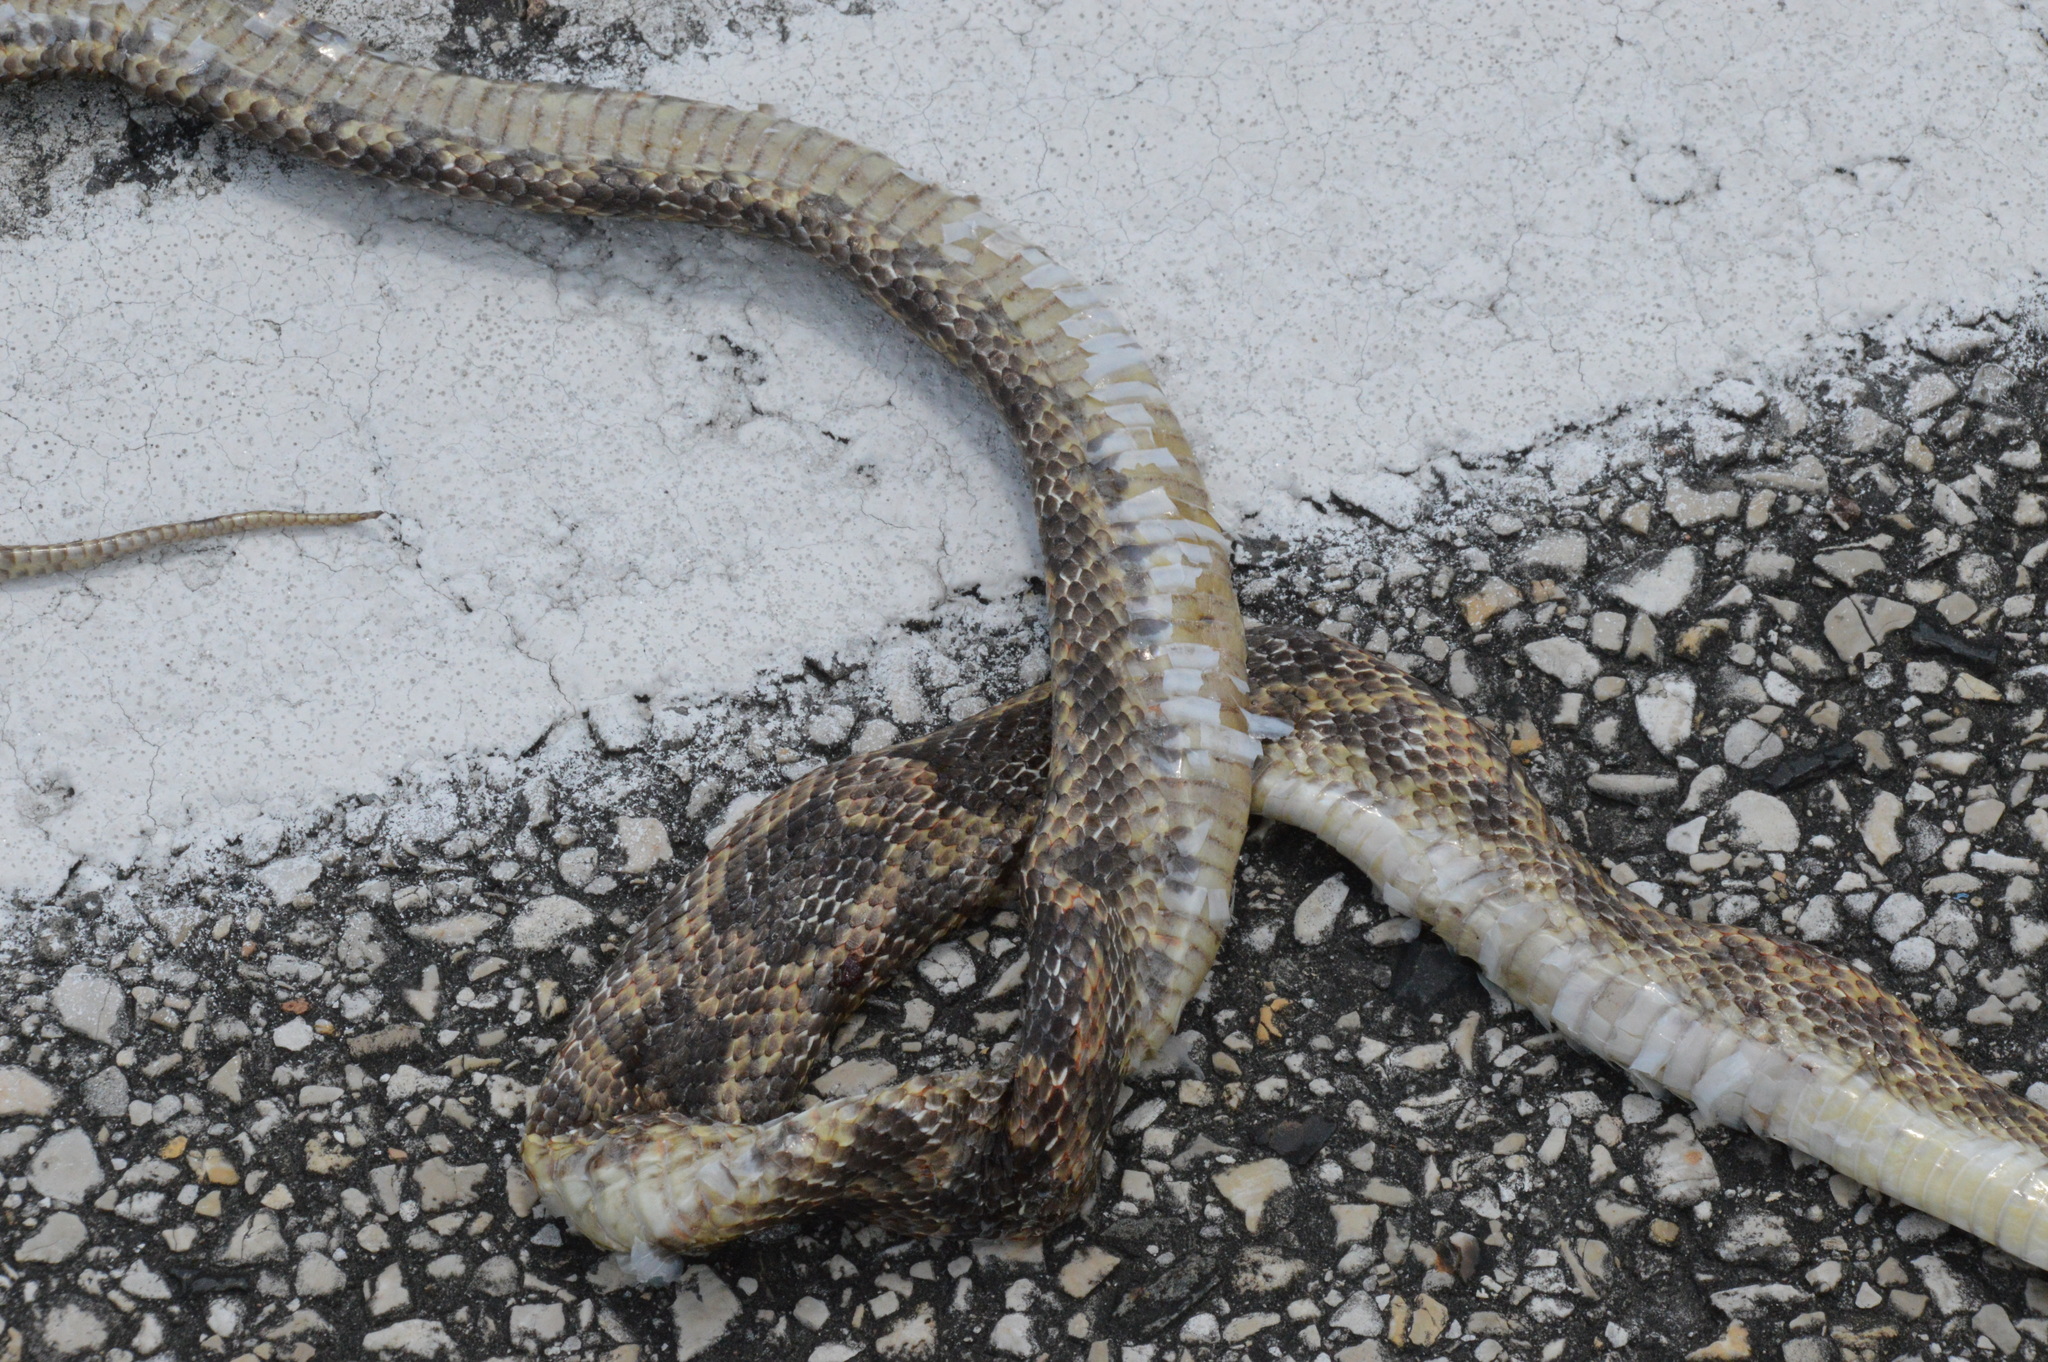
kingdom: Animalia
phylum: Chordata
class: Squamata
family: Colubridae
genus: Pantherophis
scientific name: Pantherophis obsoletus
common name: Black rat snake
